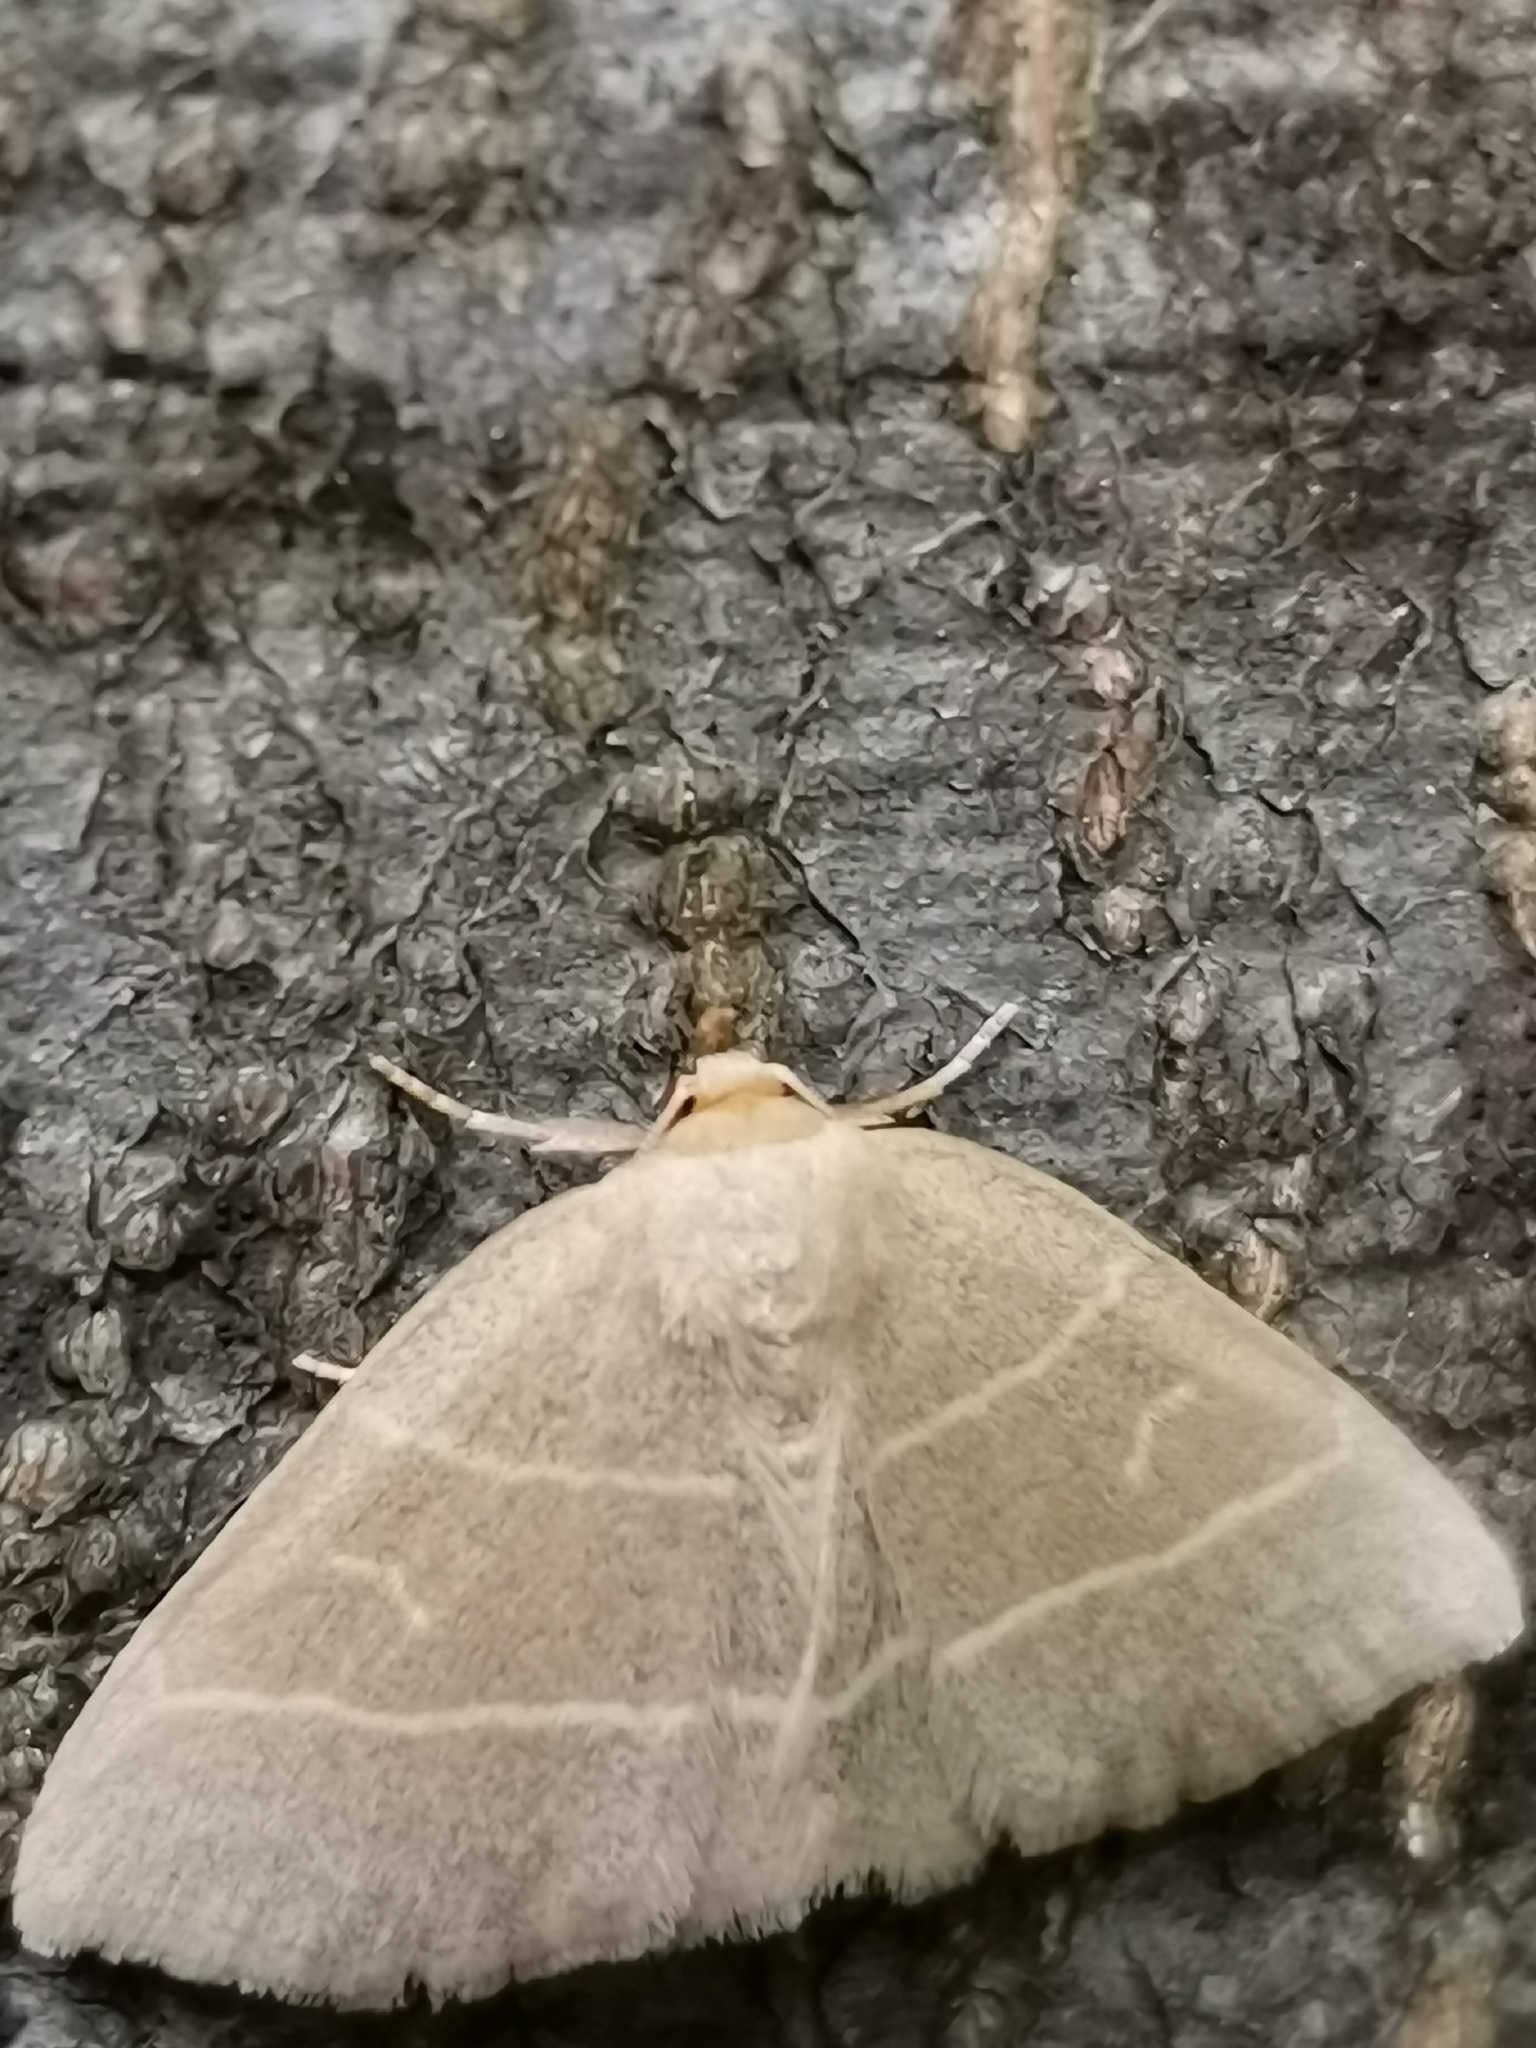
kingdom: Animalia
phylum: Arthropoda
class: Insecta
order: Lepidoptera
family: Erebidae
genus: Trisateles
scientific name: Trisateles emortualis
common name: Olive crescent
